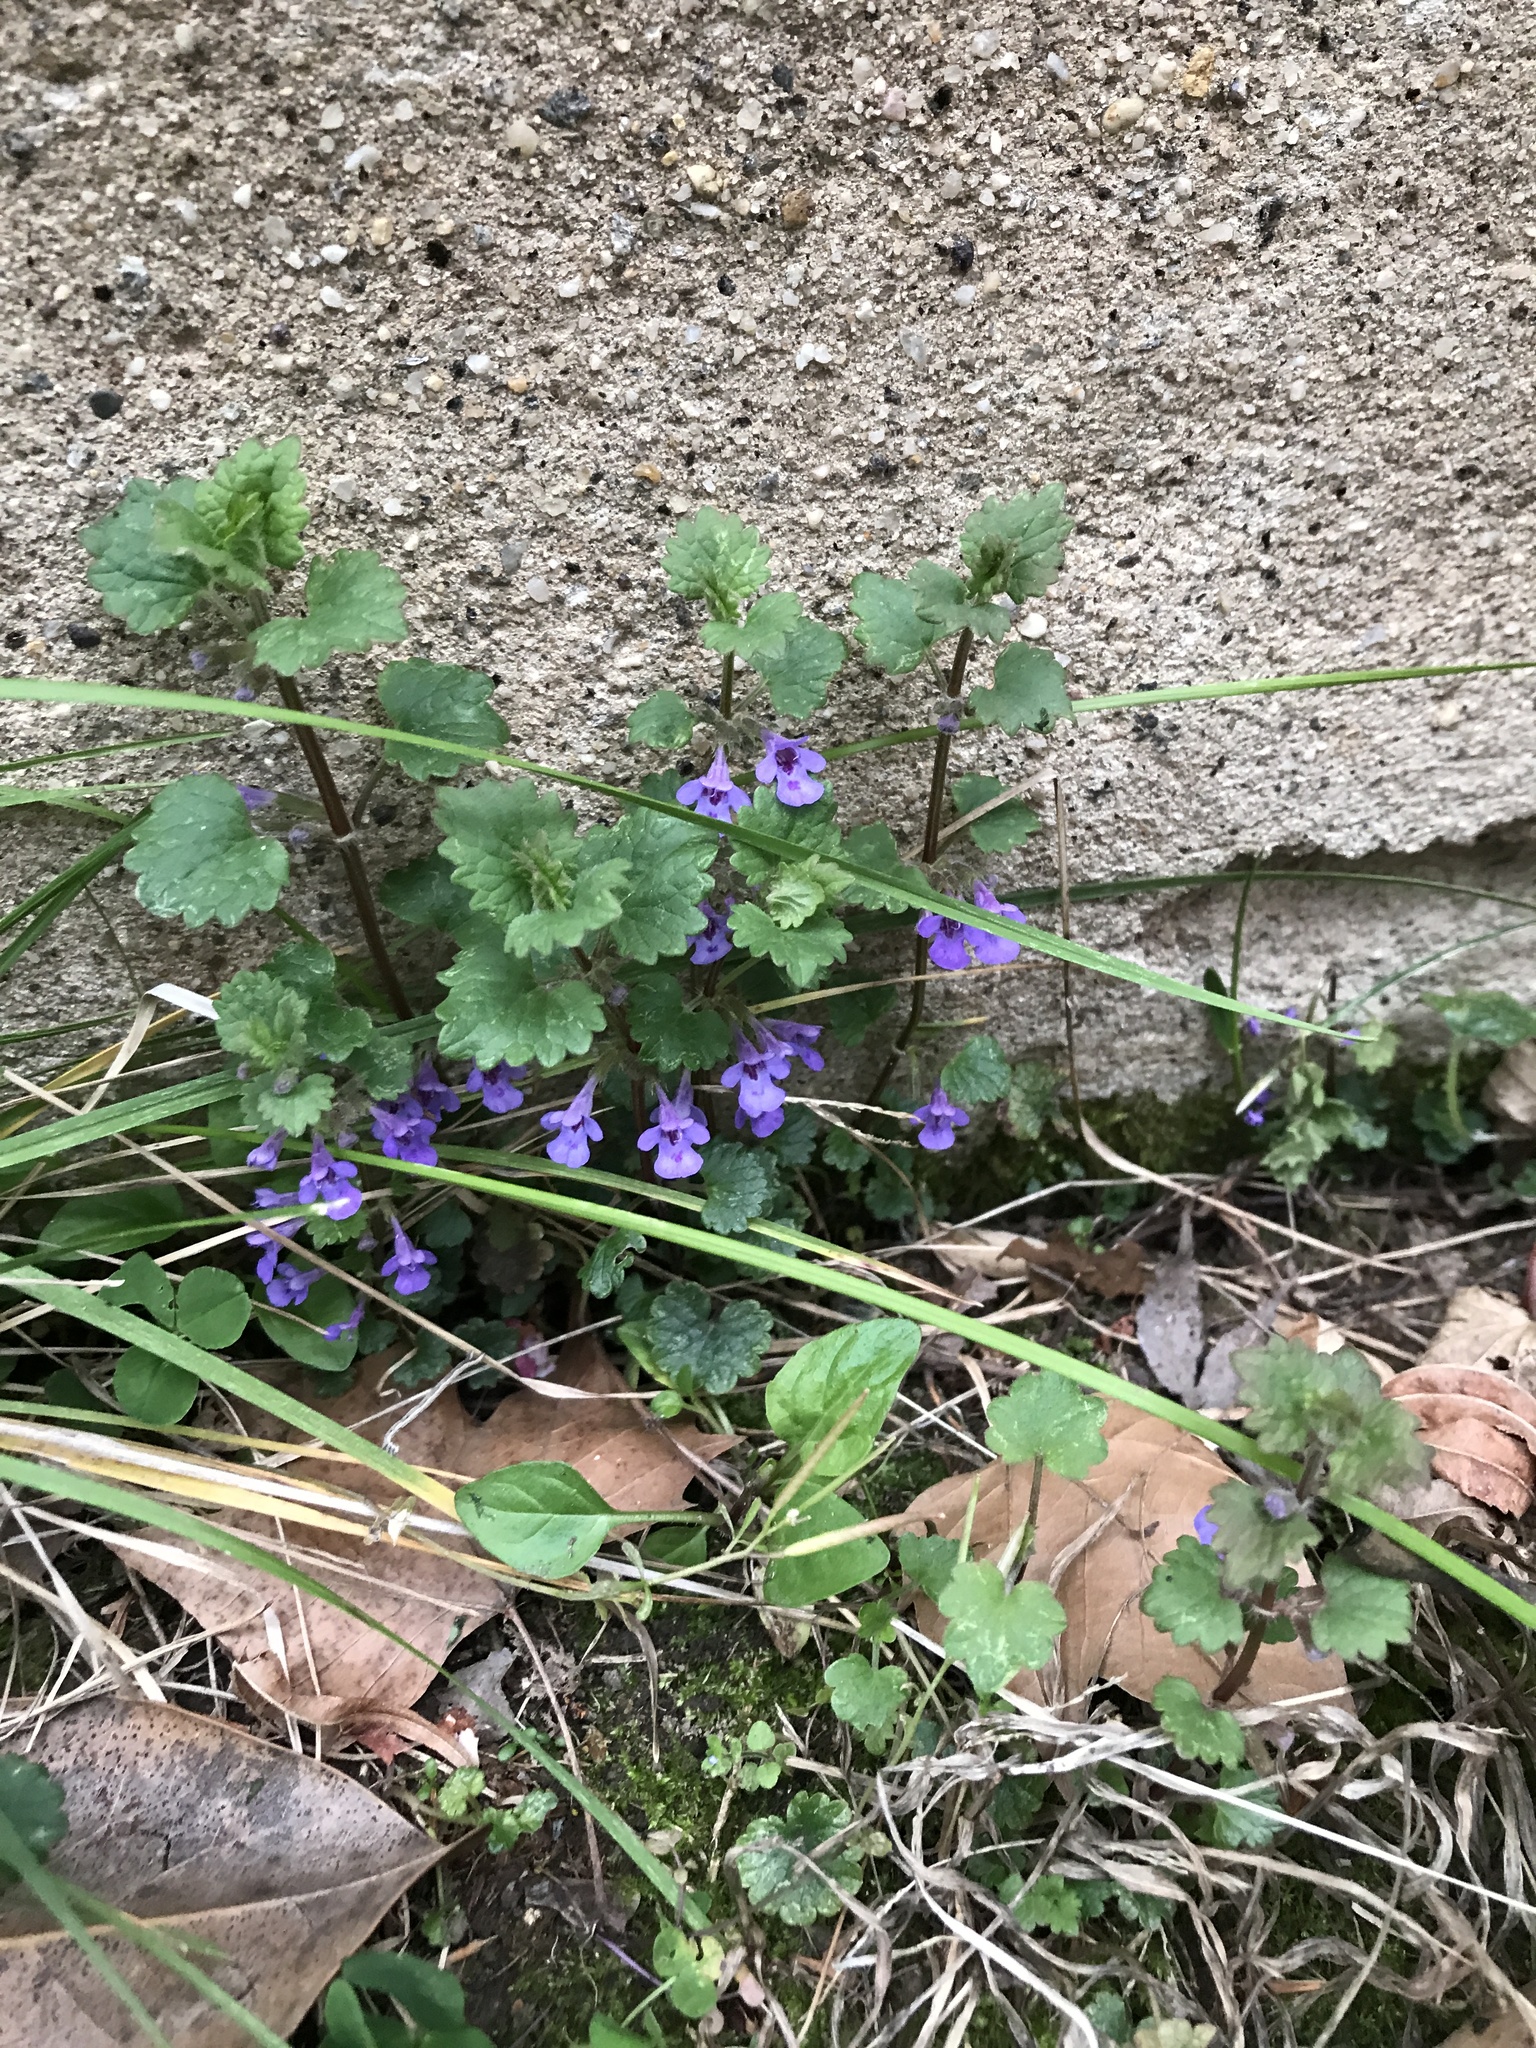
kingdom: Plantae
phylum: Tracheophyta
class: Magnoliopsida
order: Lamiales
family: Lamiaceae
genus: Glechoma
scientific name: Glechoma hederacea
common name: Ground ivy
